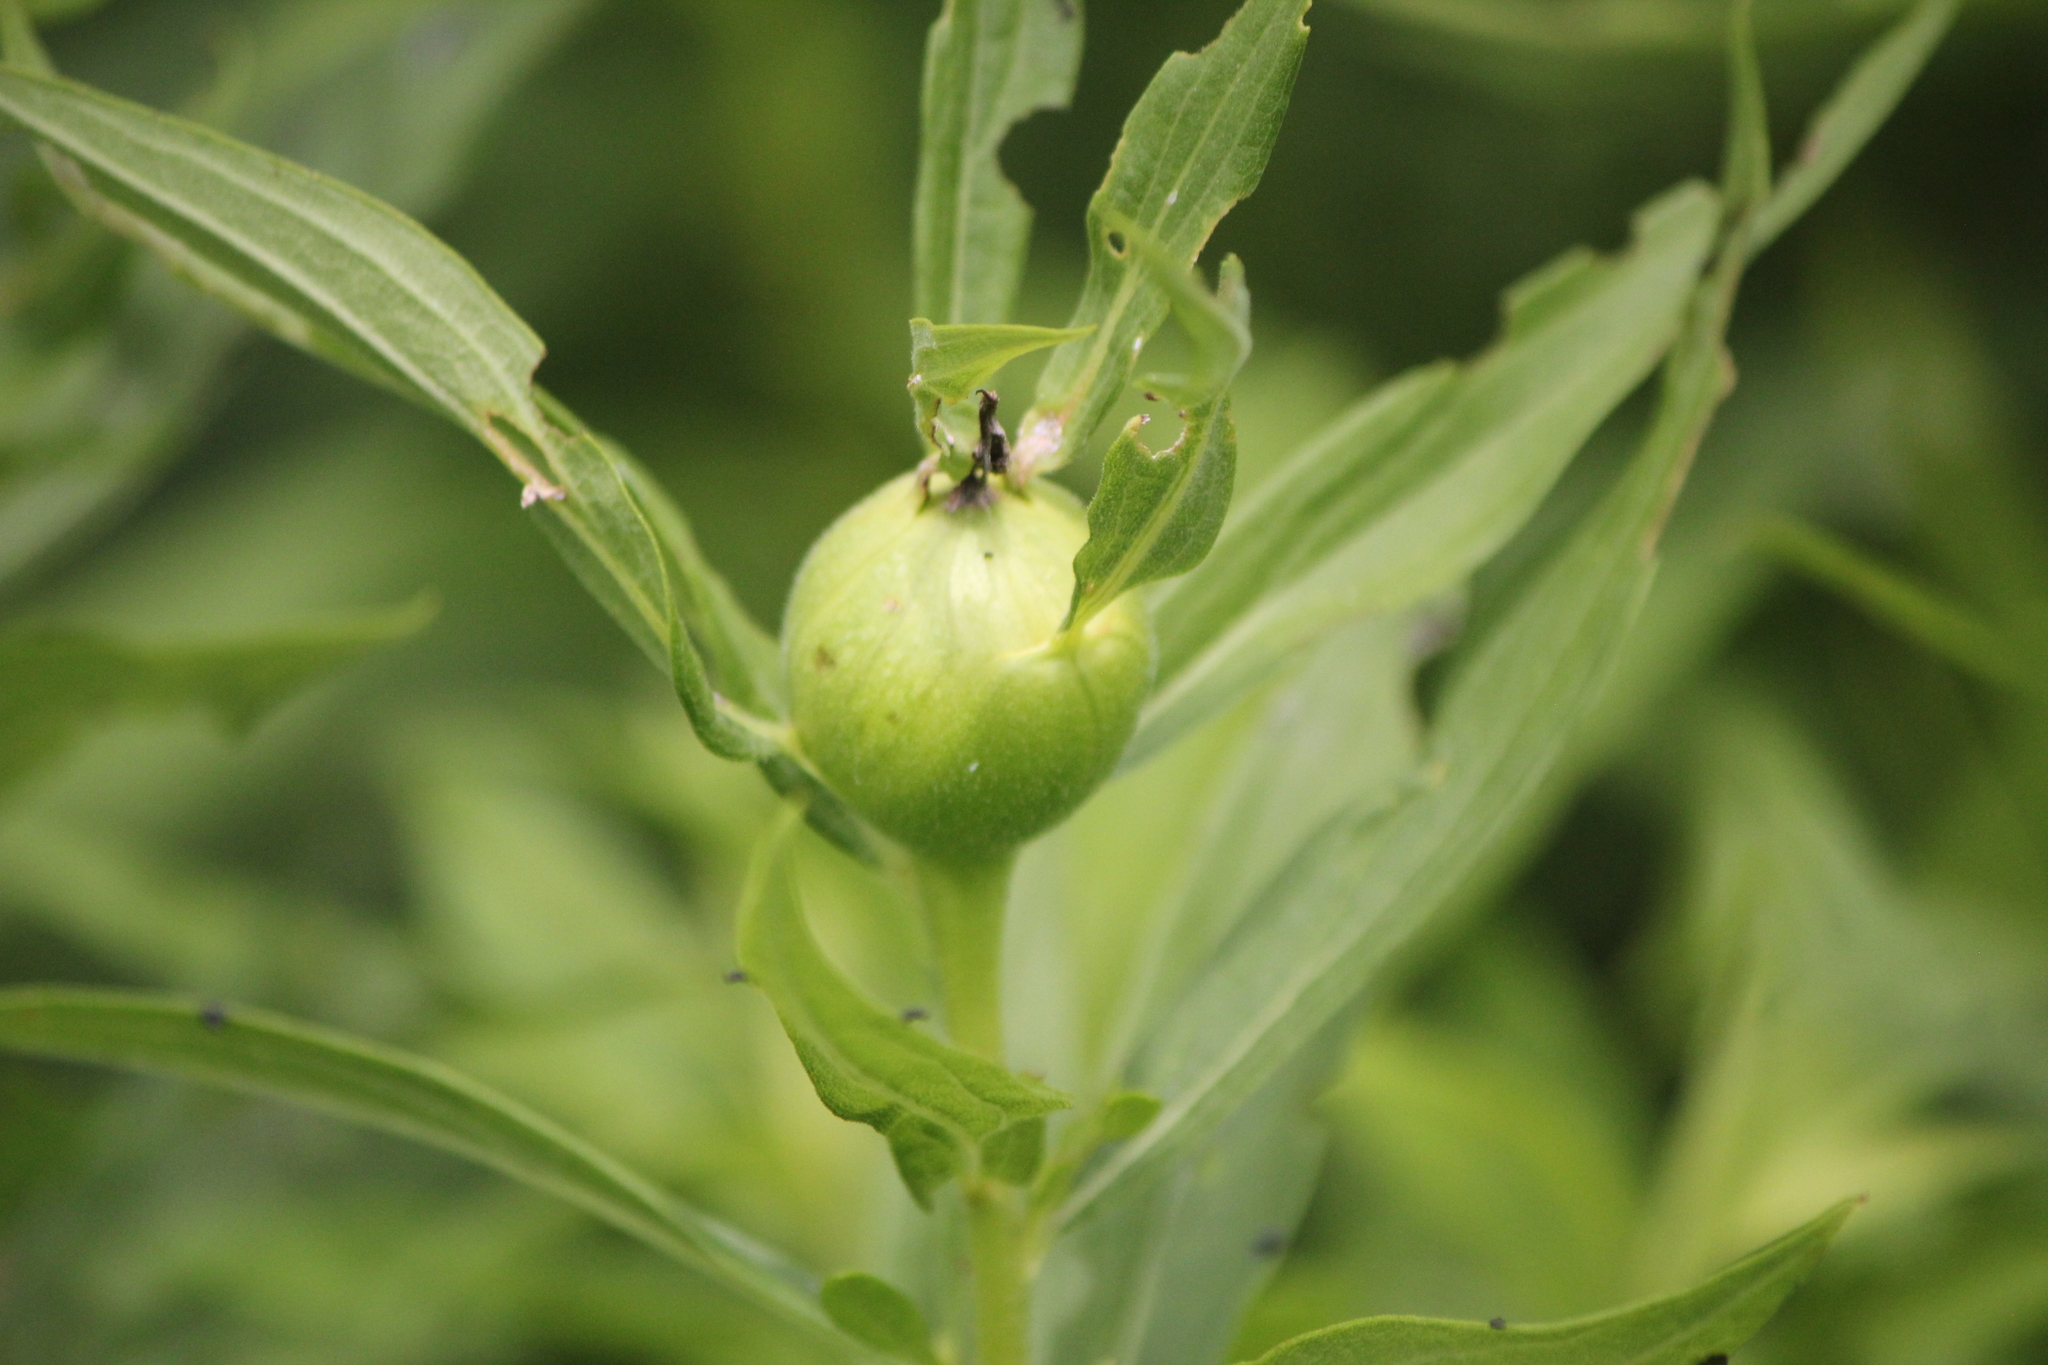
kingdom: Animalia
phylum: Arthropoda
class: Insecta
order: Diptera
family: Tephritidae
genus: Eurosta
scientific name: Eurosta solidaginis
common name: Goldenrod gall fly
